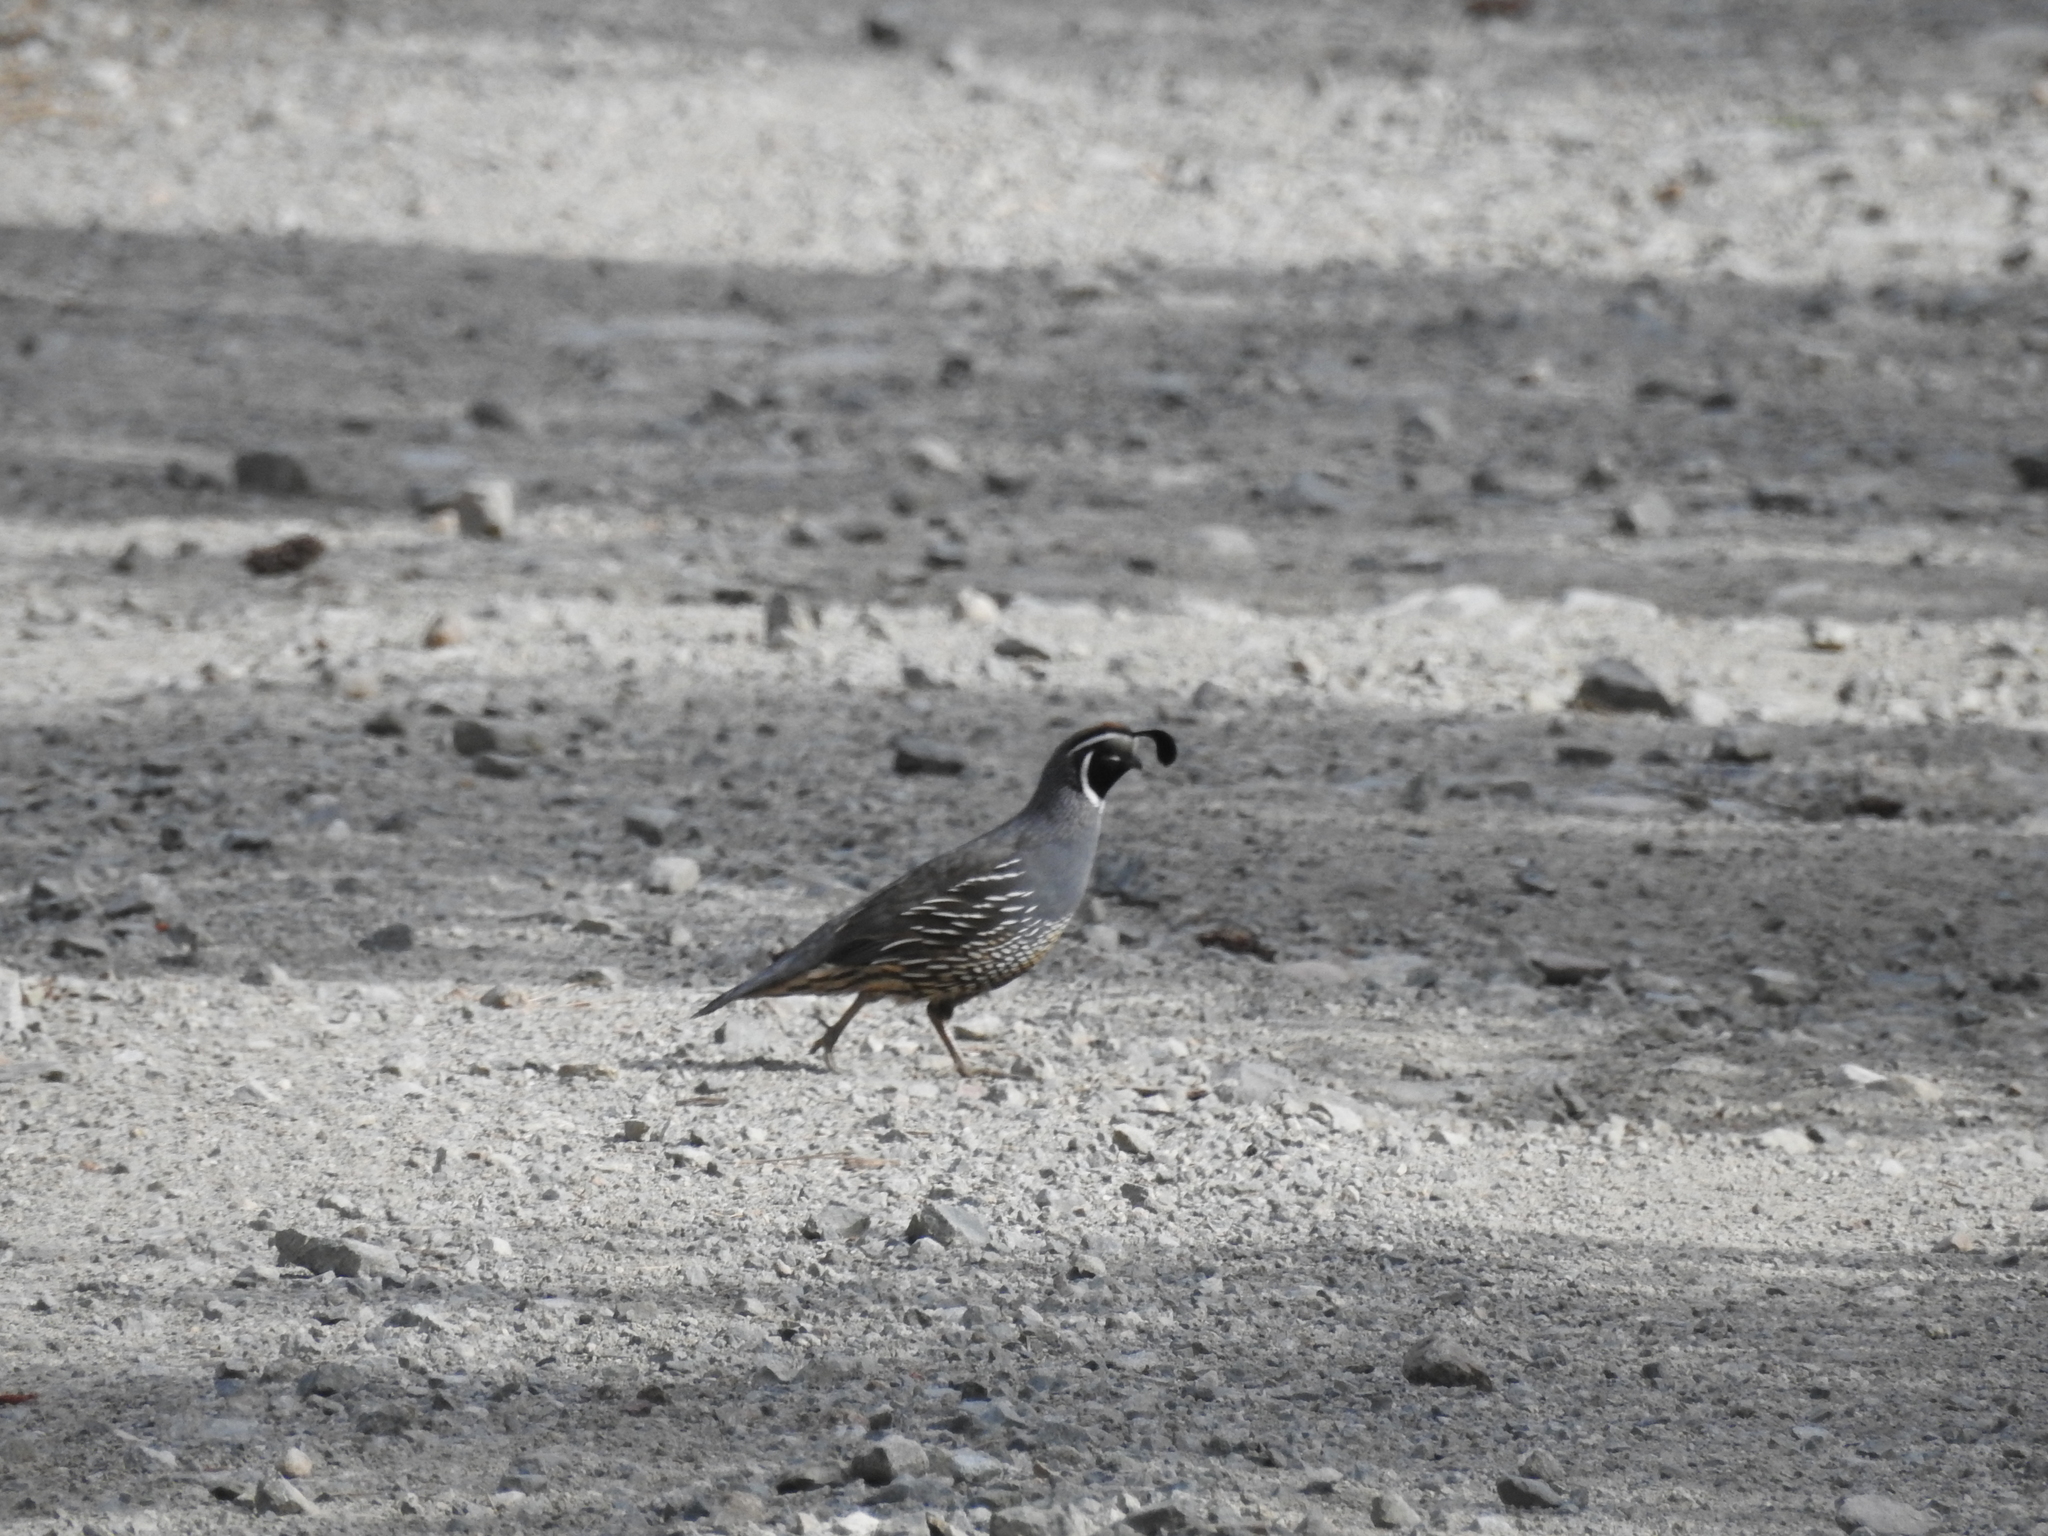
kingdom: Animalia
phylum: Chordata
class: Aves
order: Galliformes
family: Odontophoridae
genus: Callipepla
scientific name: Callipepla californica
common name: California quail
